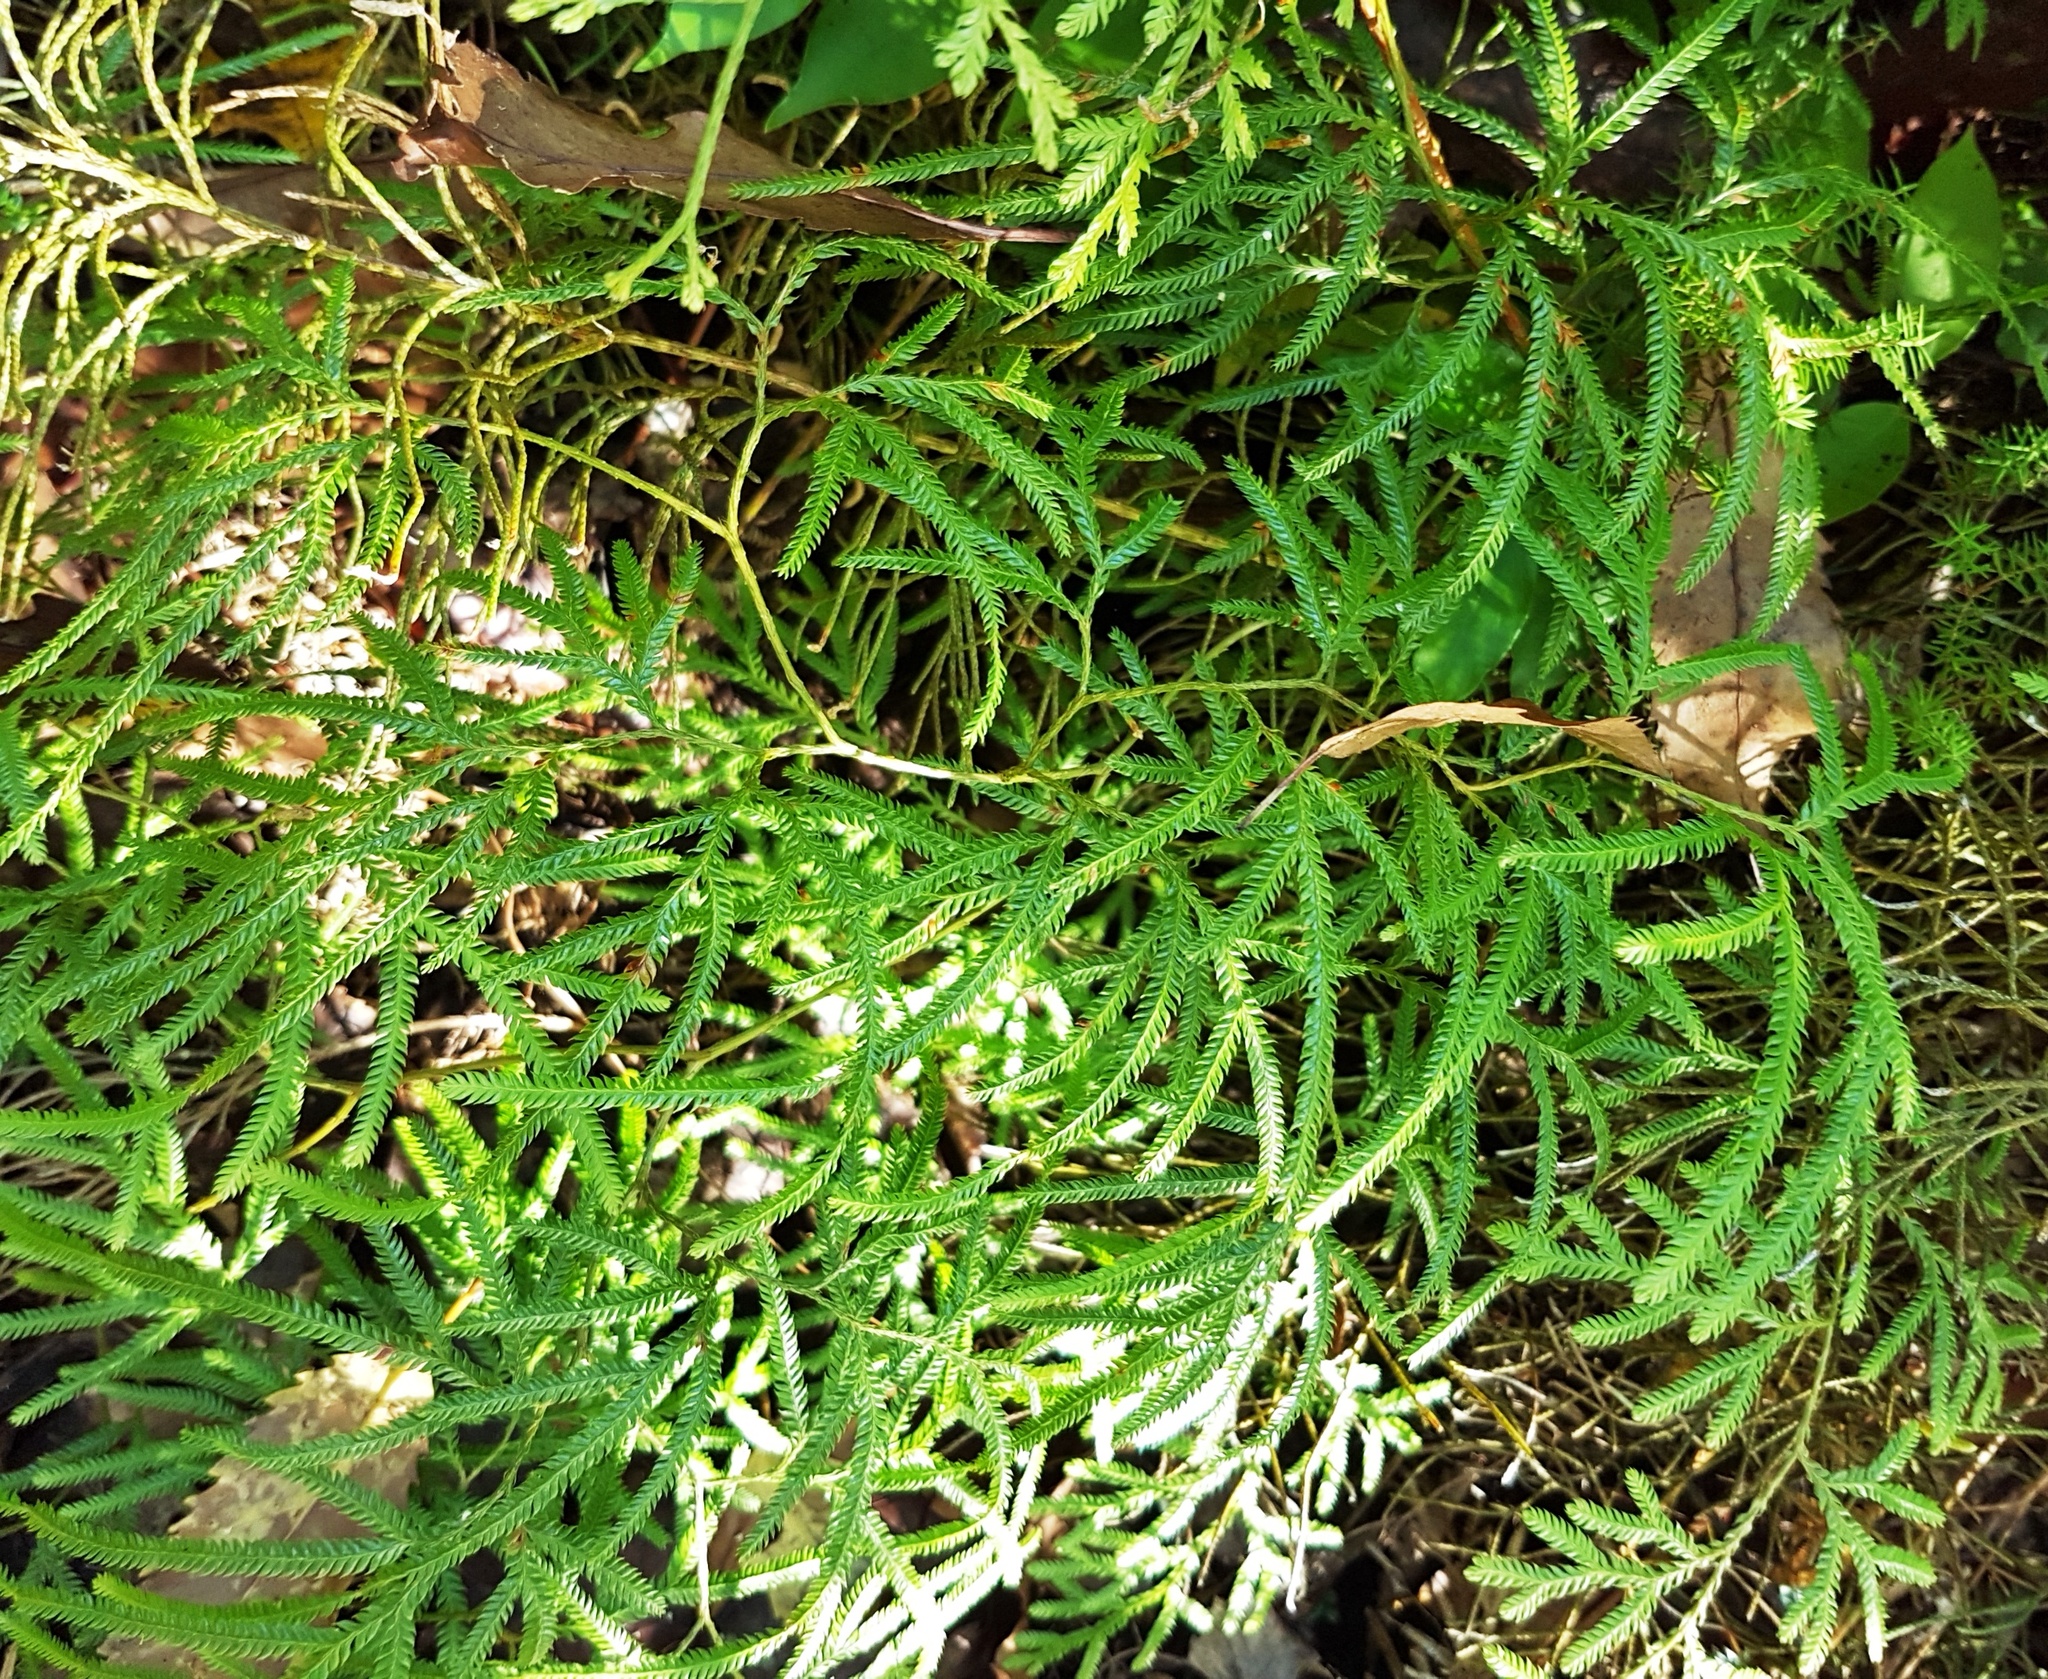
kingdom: Plantae
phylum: Tracheophyta
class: Lycopodiopsida
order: Lycopodiales
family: Lycopodiaceae
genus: Lycopodium
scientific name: Lycopodium volubile
